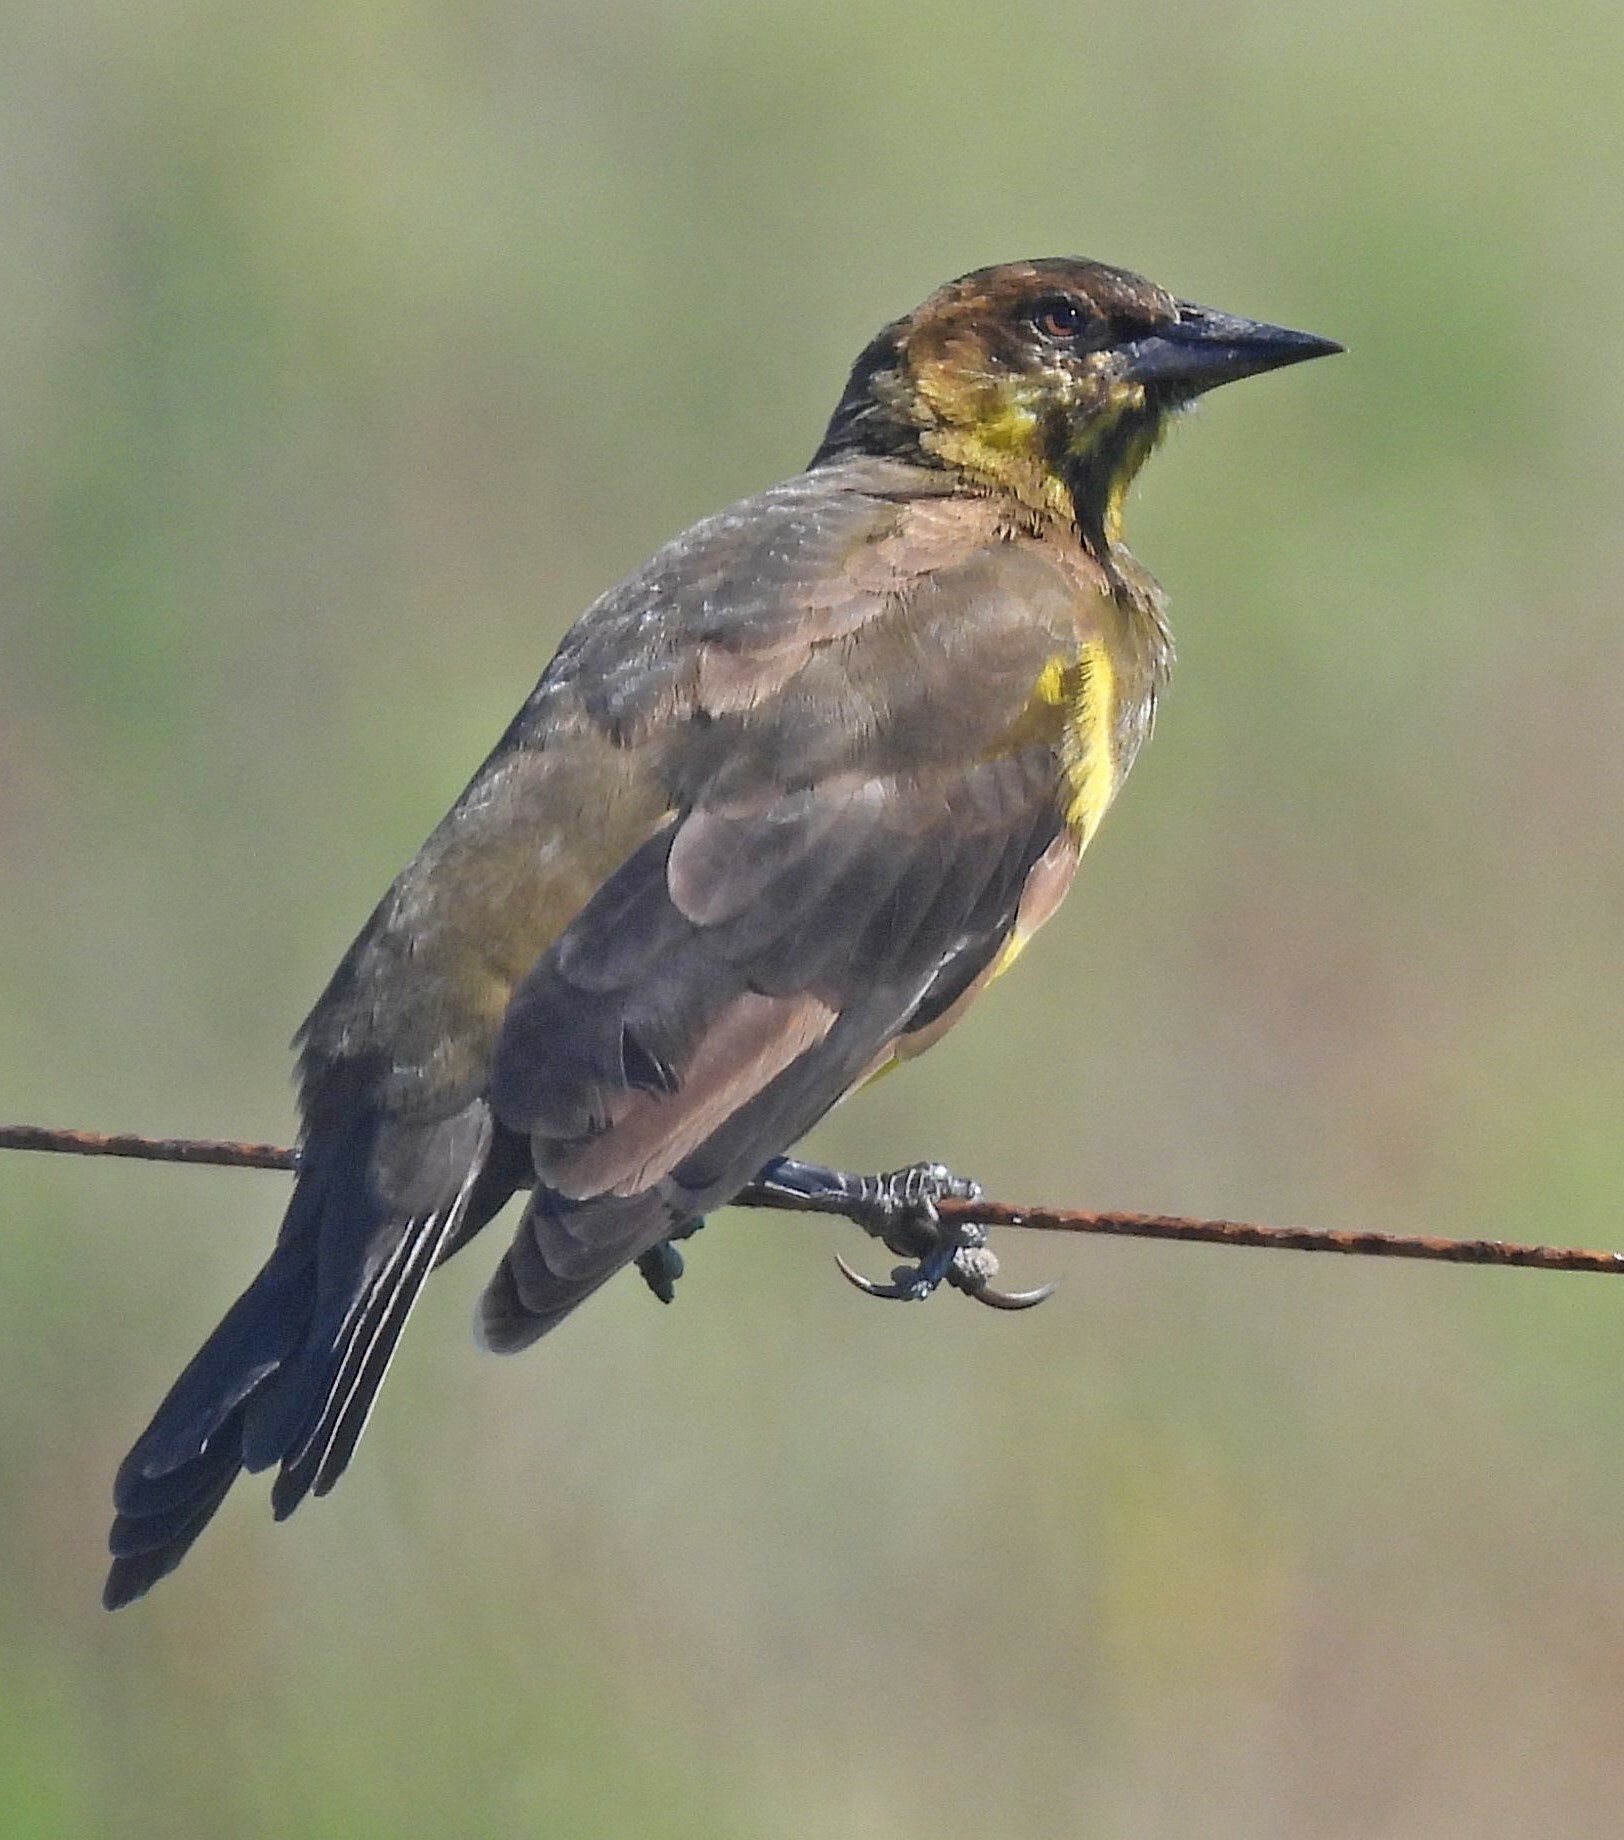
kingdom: Animalia
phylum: Chordata
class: Aves
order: Passeriformes
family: Icteridae
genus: Pseudoleistes
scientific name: Pseudoleistes virescens
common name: Brown-and-yellow marshbird
